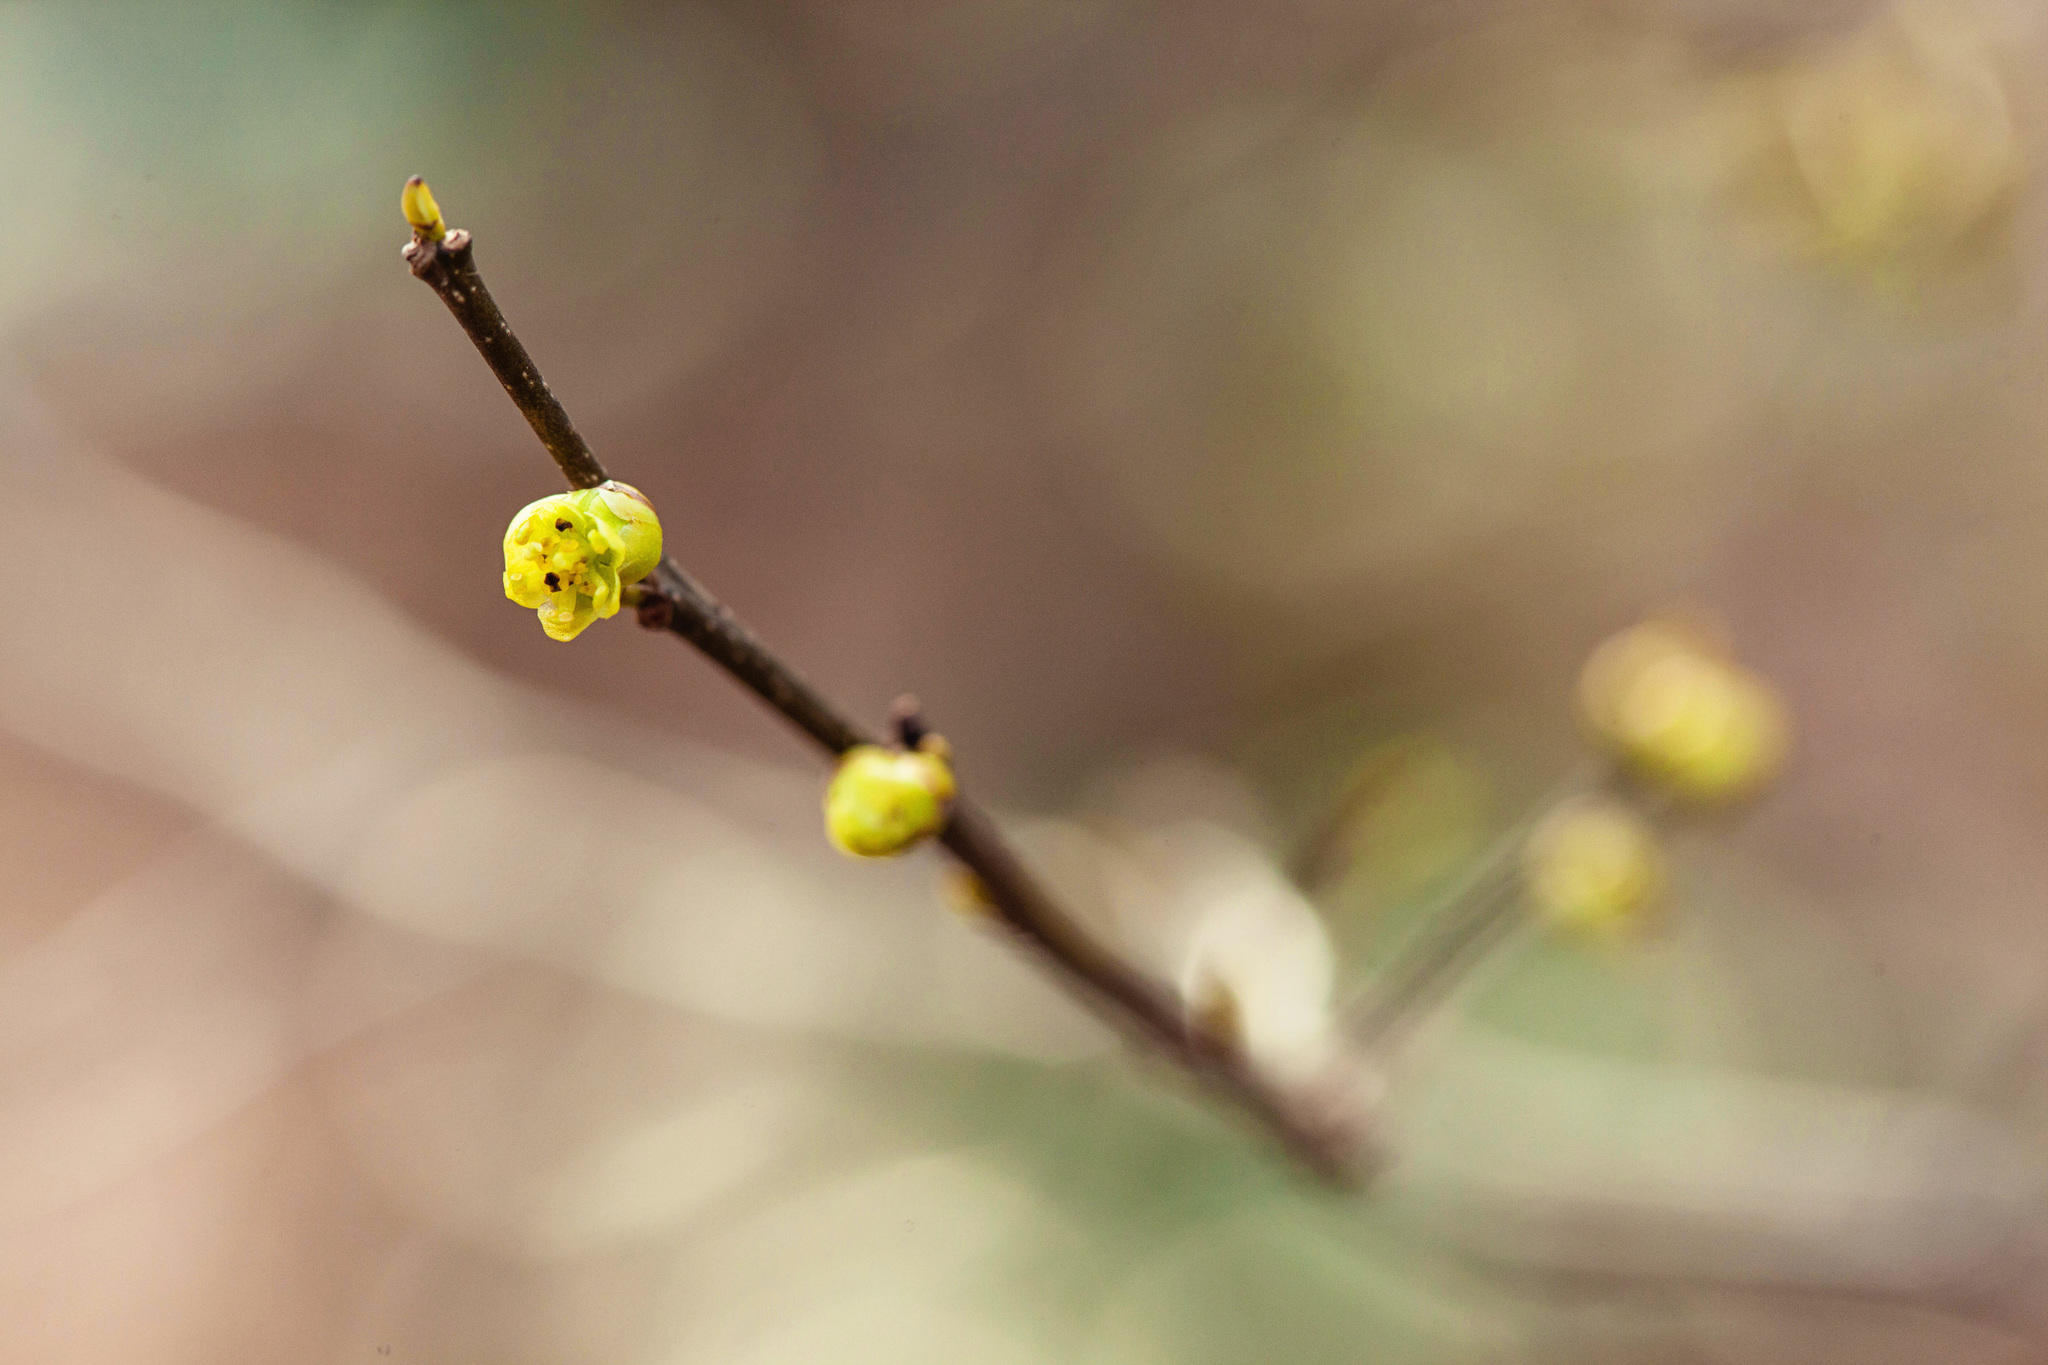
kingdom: Plantae
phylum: Tracheophyta
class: Magnoliopsida
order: Laurales
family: Lauraceae
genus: Lindera
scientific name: Lindera benzoin
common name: Spicebush
